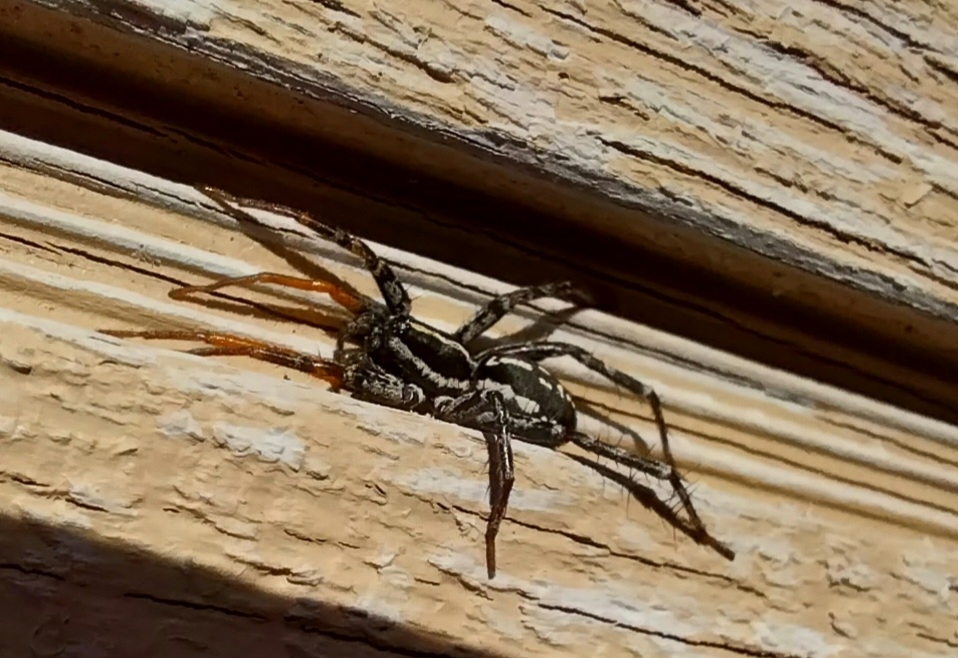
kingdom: Animalia
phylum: Arthropoda
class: Arachnida
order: Araneae
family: Corinnidae
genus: Nyssus
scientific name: Nyssus coloripes
